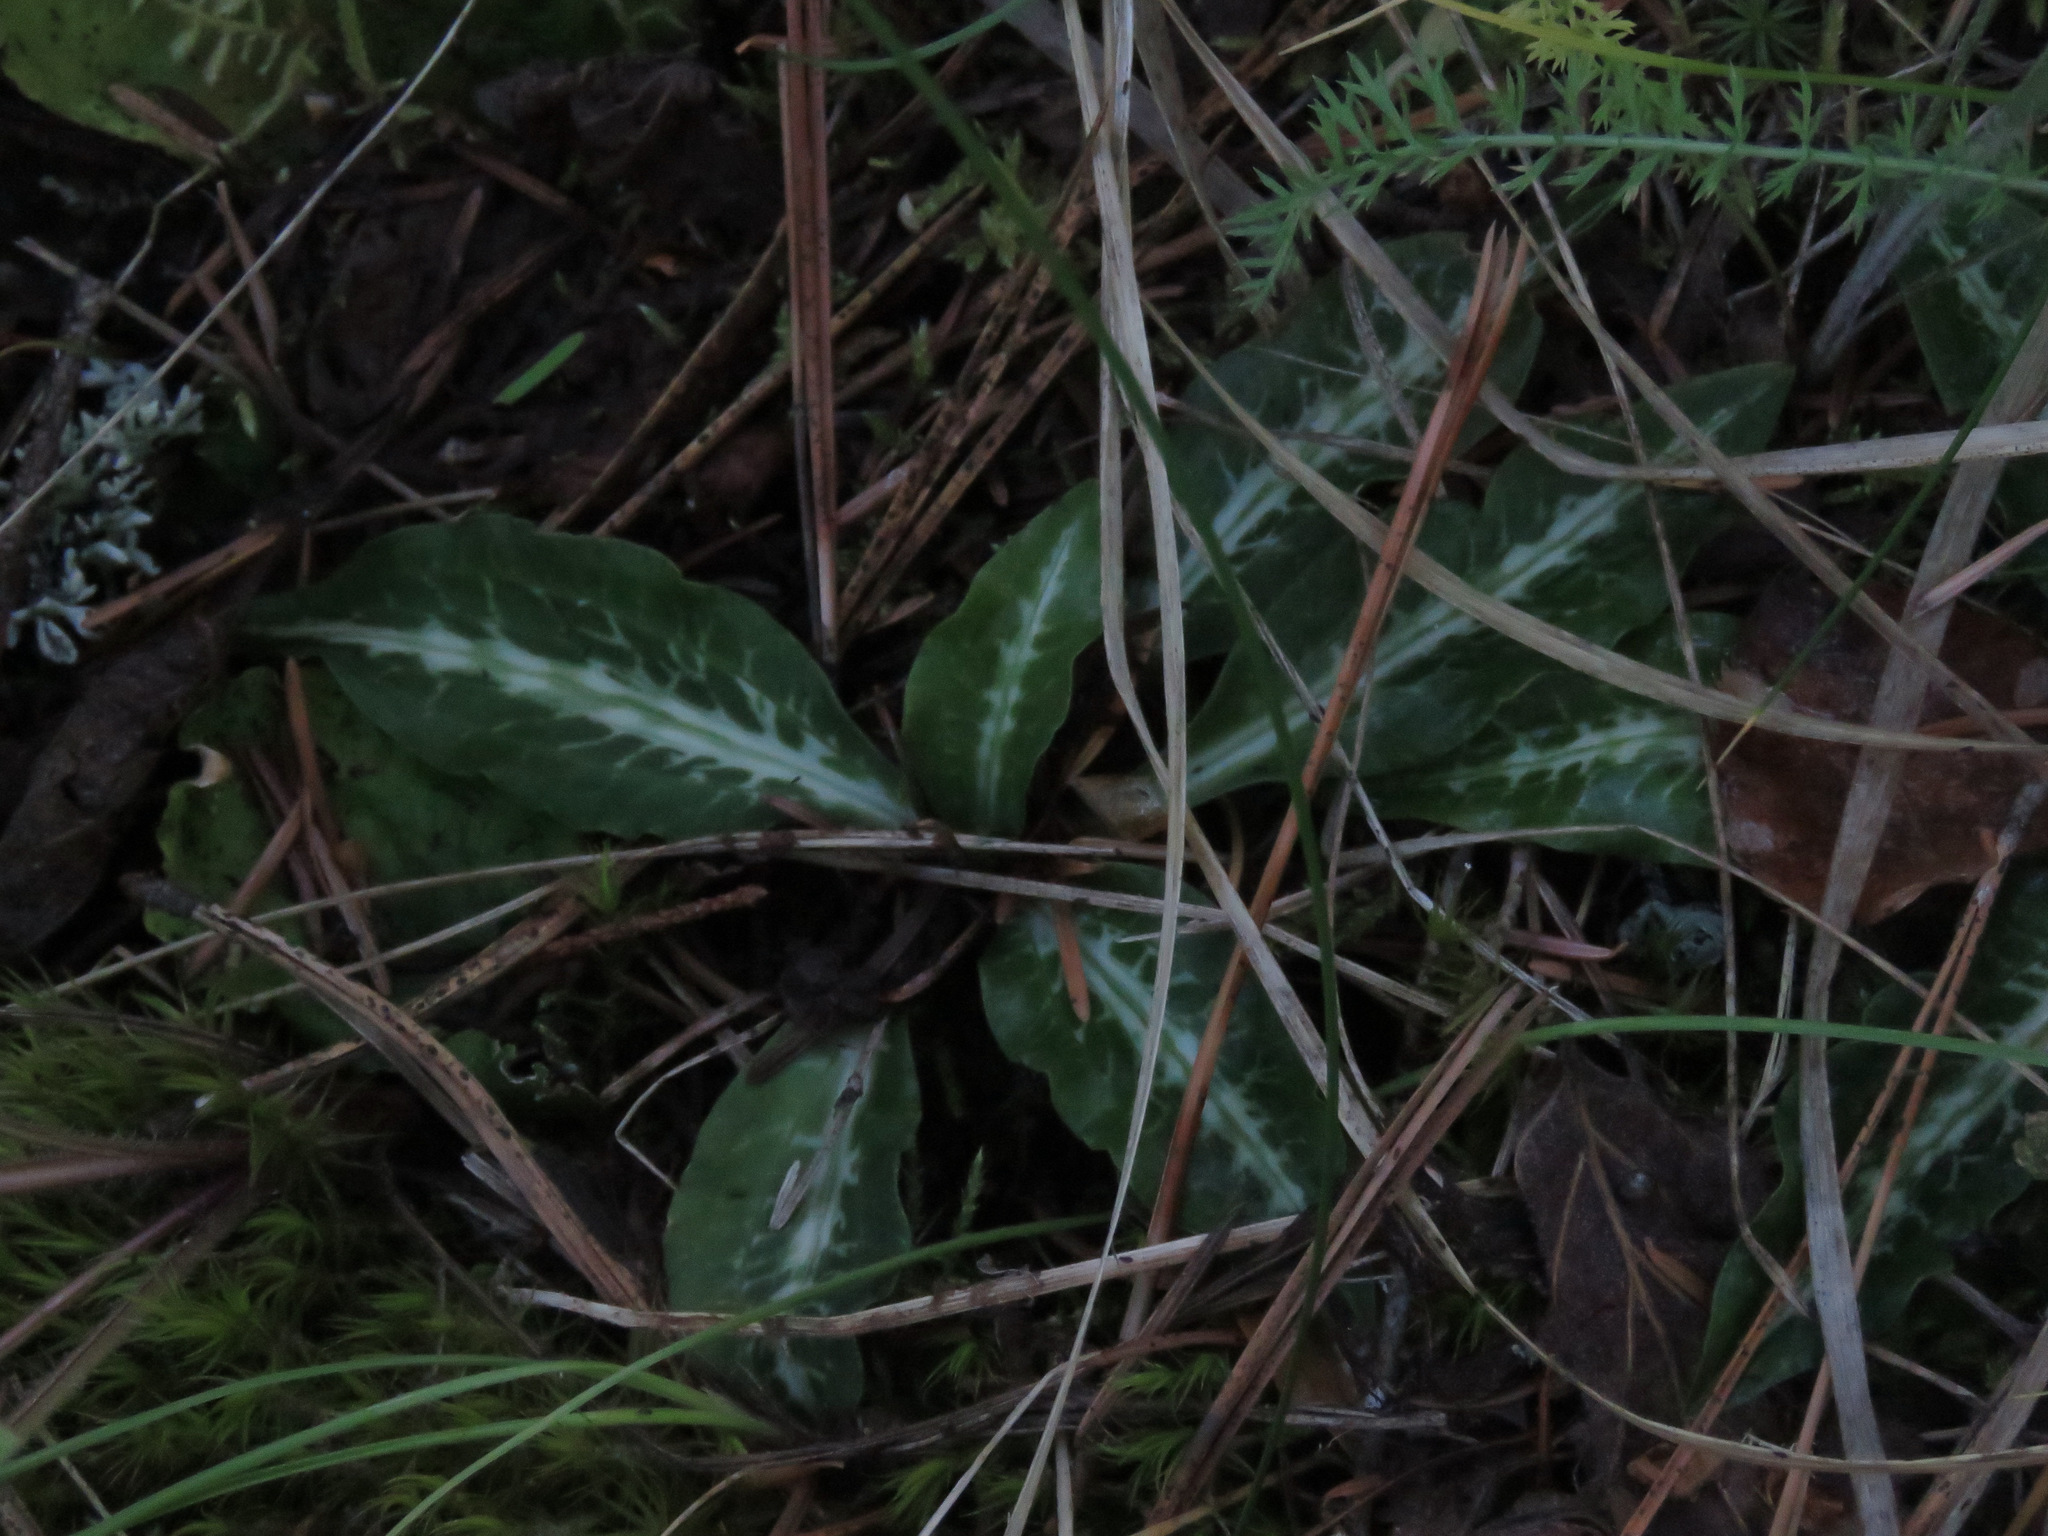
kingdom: Plantae
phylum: Tracheophyta
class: Liliopsida
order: Asparagales
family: Orchidaceae
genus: Goodyera
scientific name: Goodyera oblongifolia
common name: Giant rattlesnake-plantain
